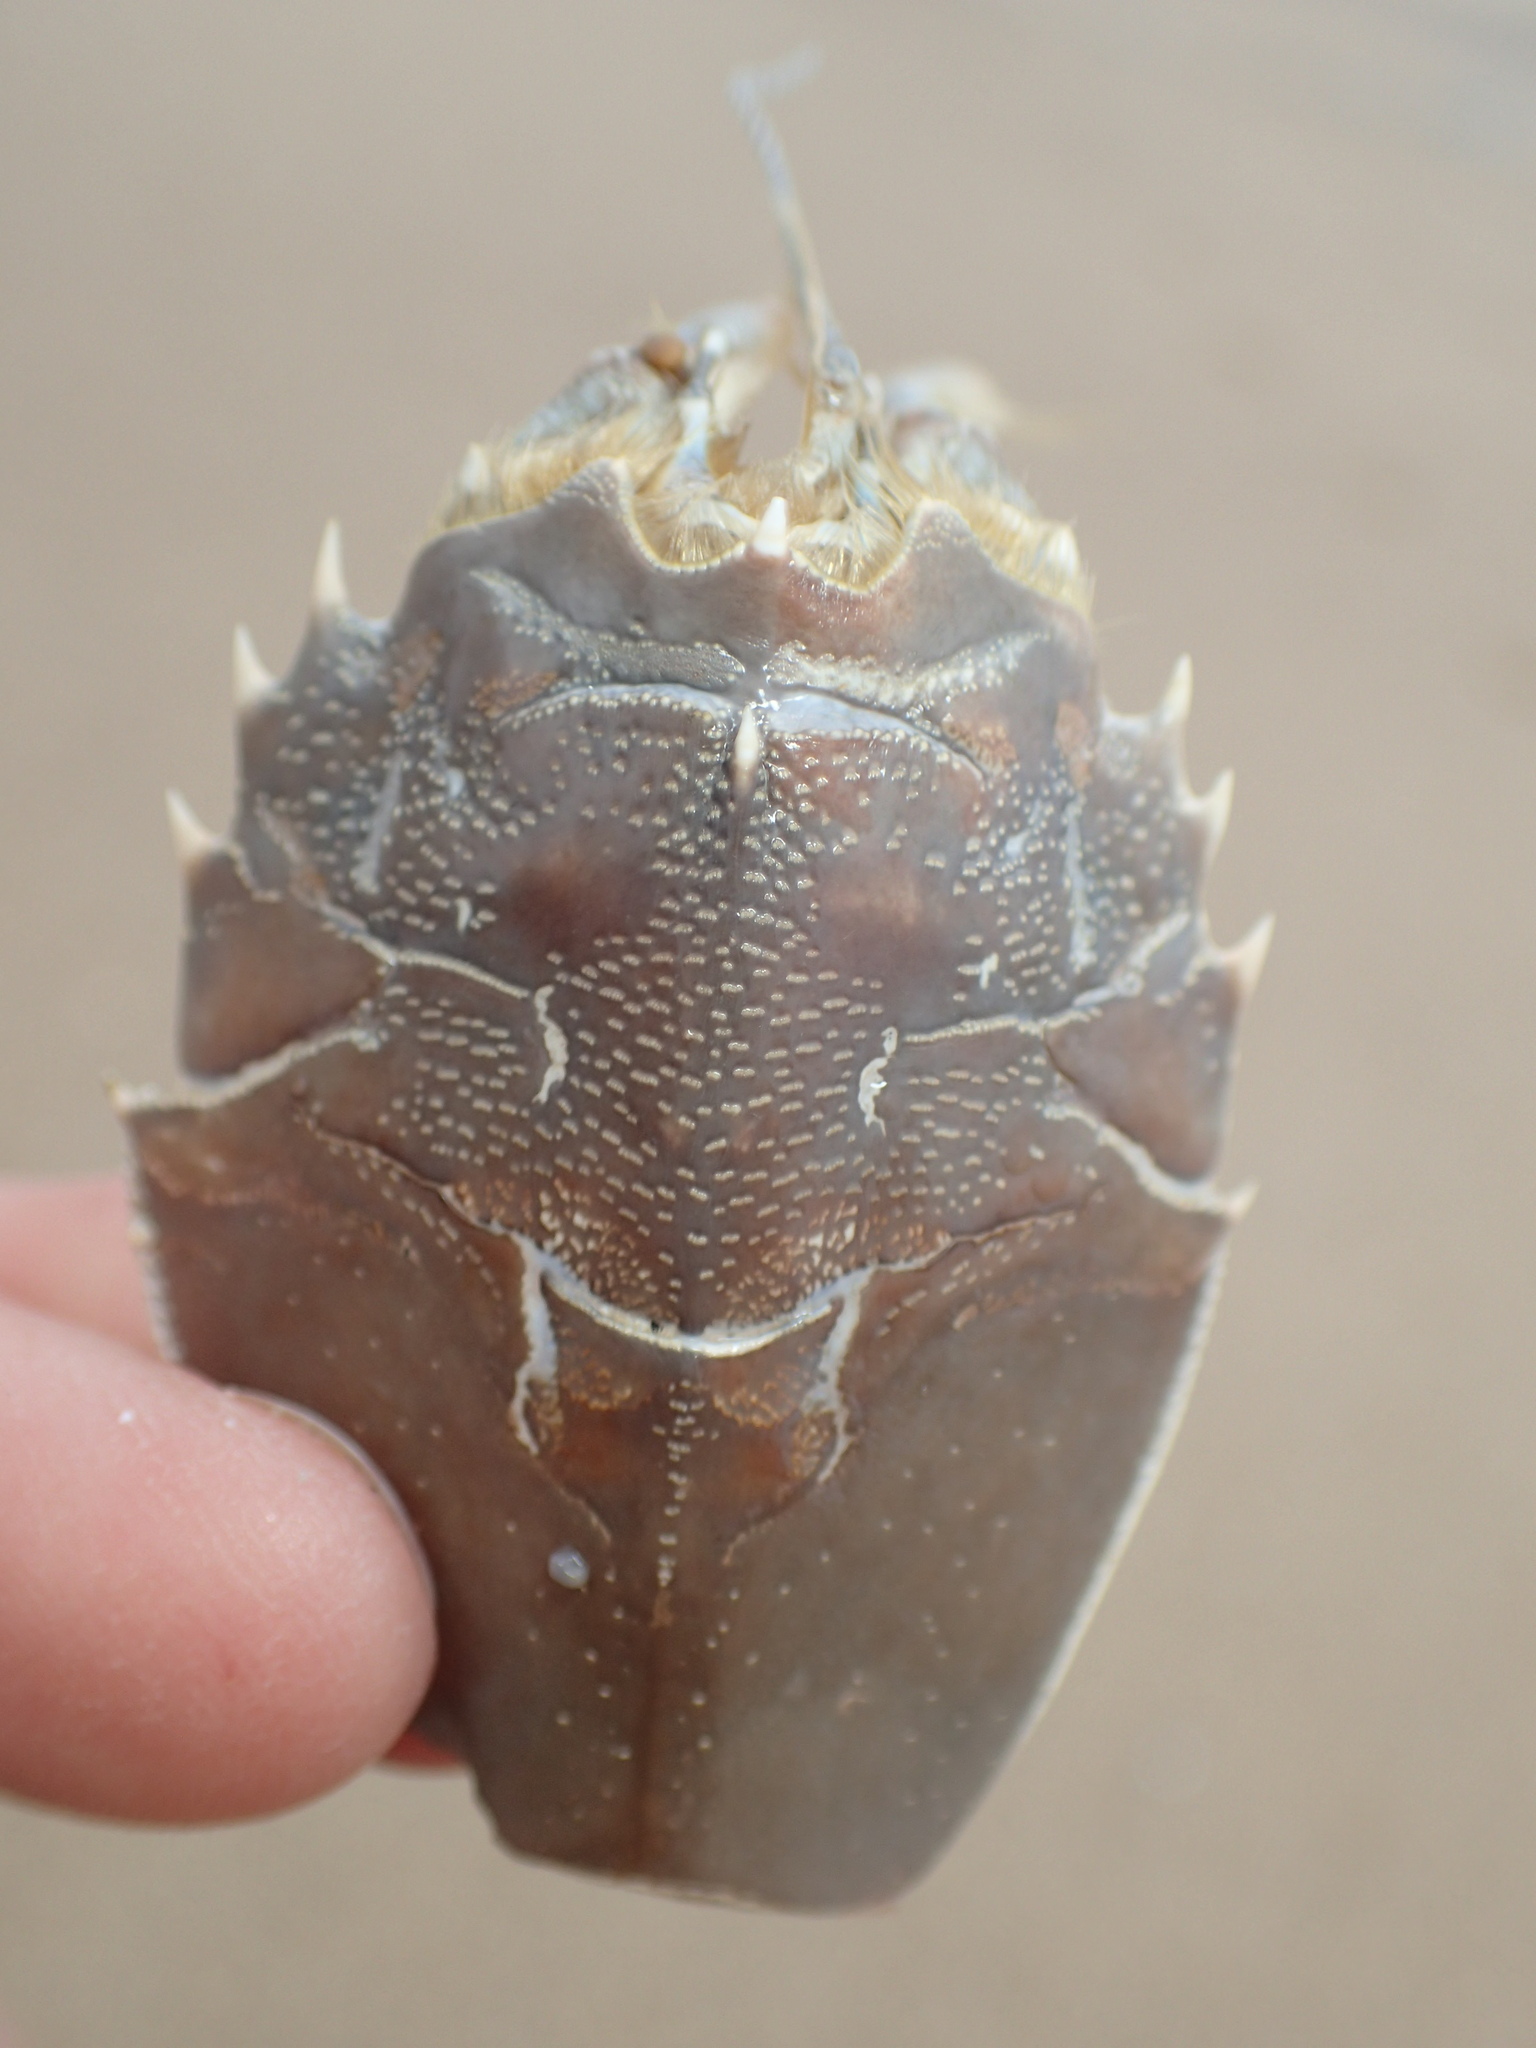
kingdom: Animalia
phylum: Arthropoda
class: Malacostraca
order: Decapoda
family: Blepharipodidae
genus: Blepharipoda
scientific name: Blepharipoda occidentalis
